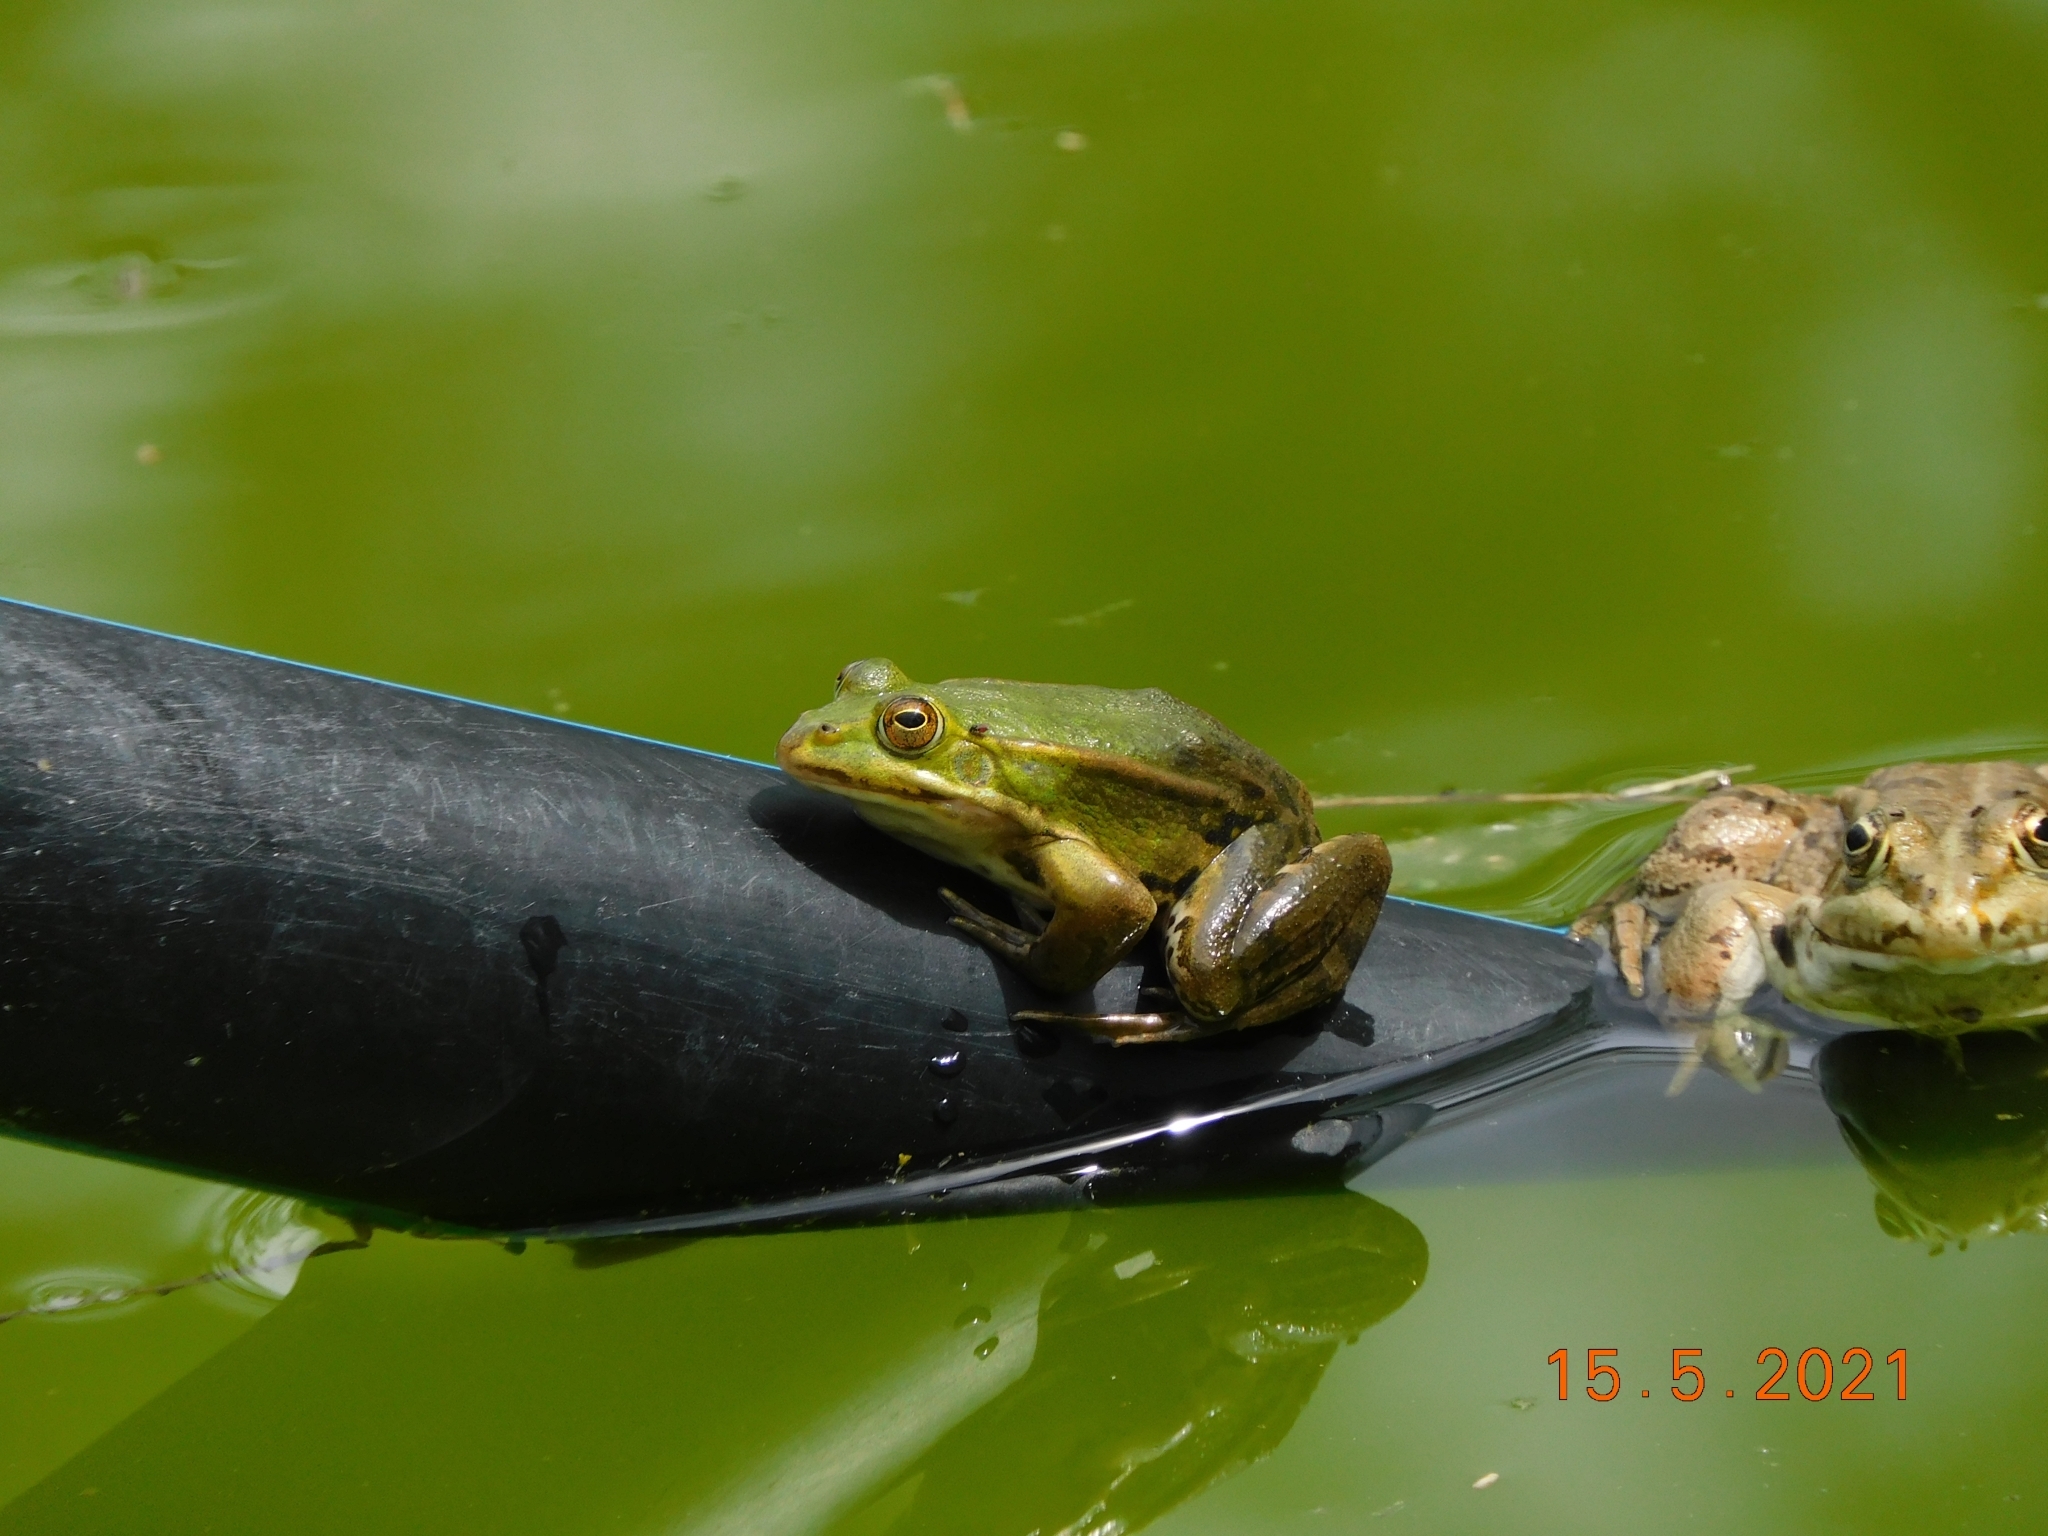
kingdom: Animalia
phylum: Chordata
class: Amphibia
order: Anura
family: Ranidae
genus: Pelophylax
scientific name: Pelophylax
